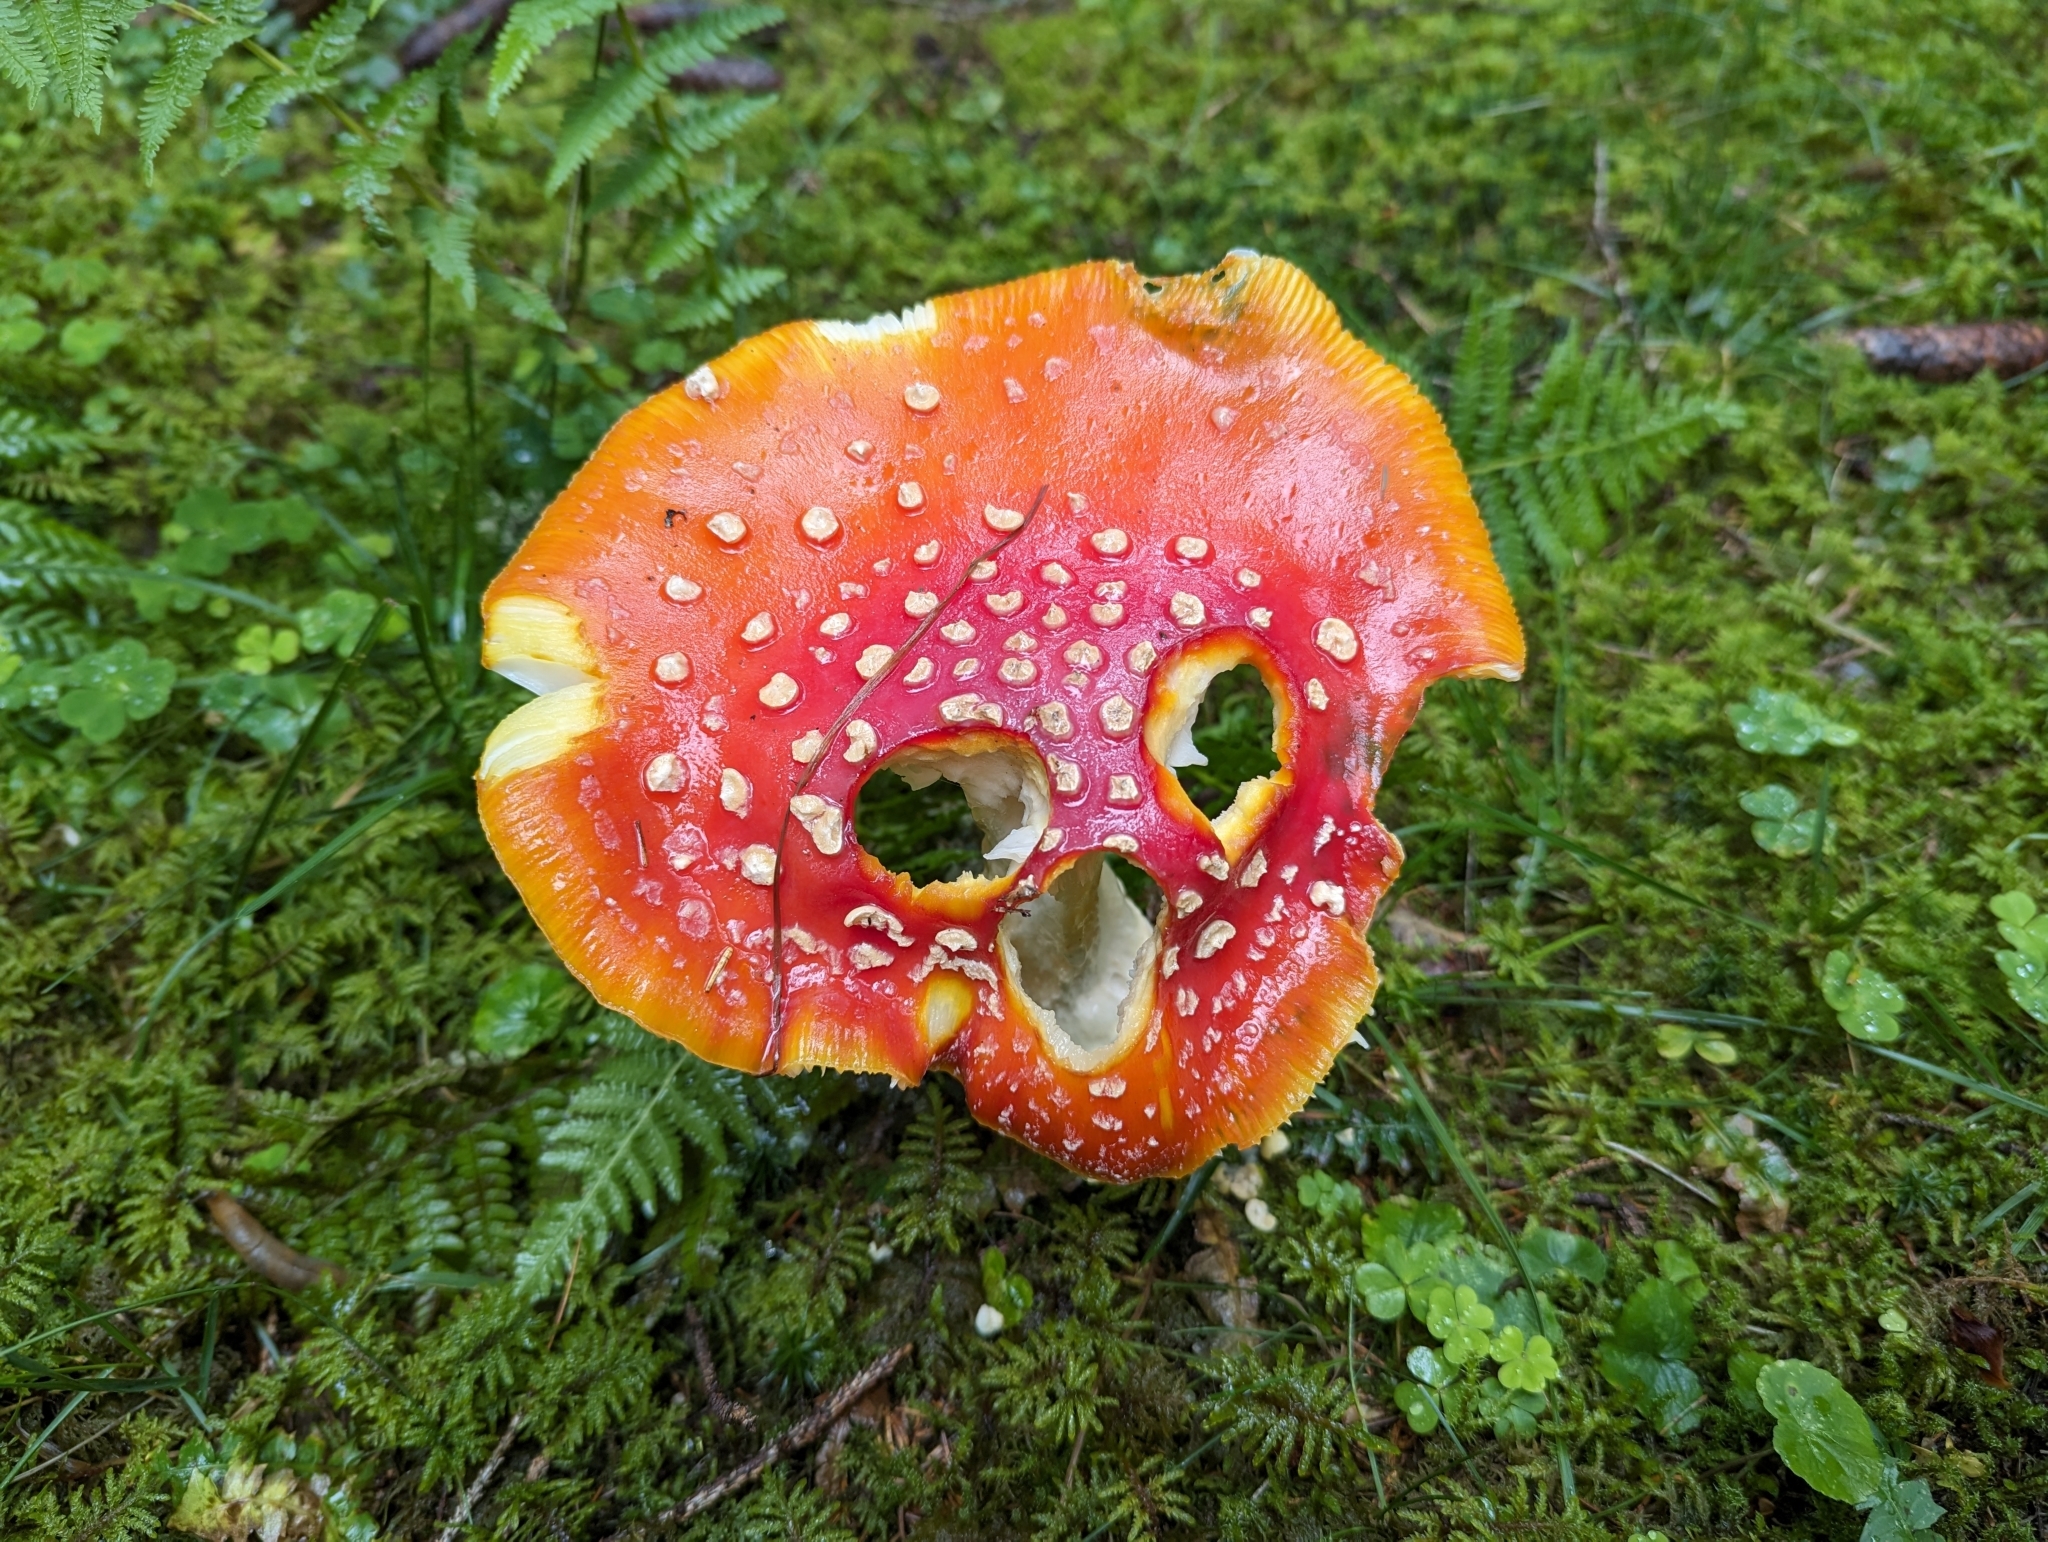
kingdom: Fungi
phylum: Basidiomycota
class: Agaricomycetes
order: Agaricales
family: Amanitaceae
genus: Amanita
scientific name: Amanita muscaria
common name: Fly agaric
